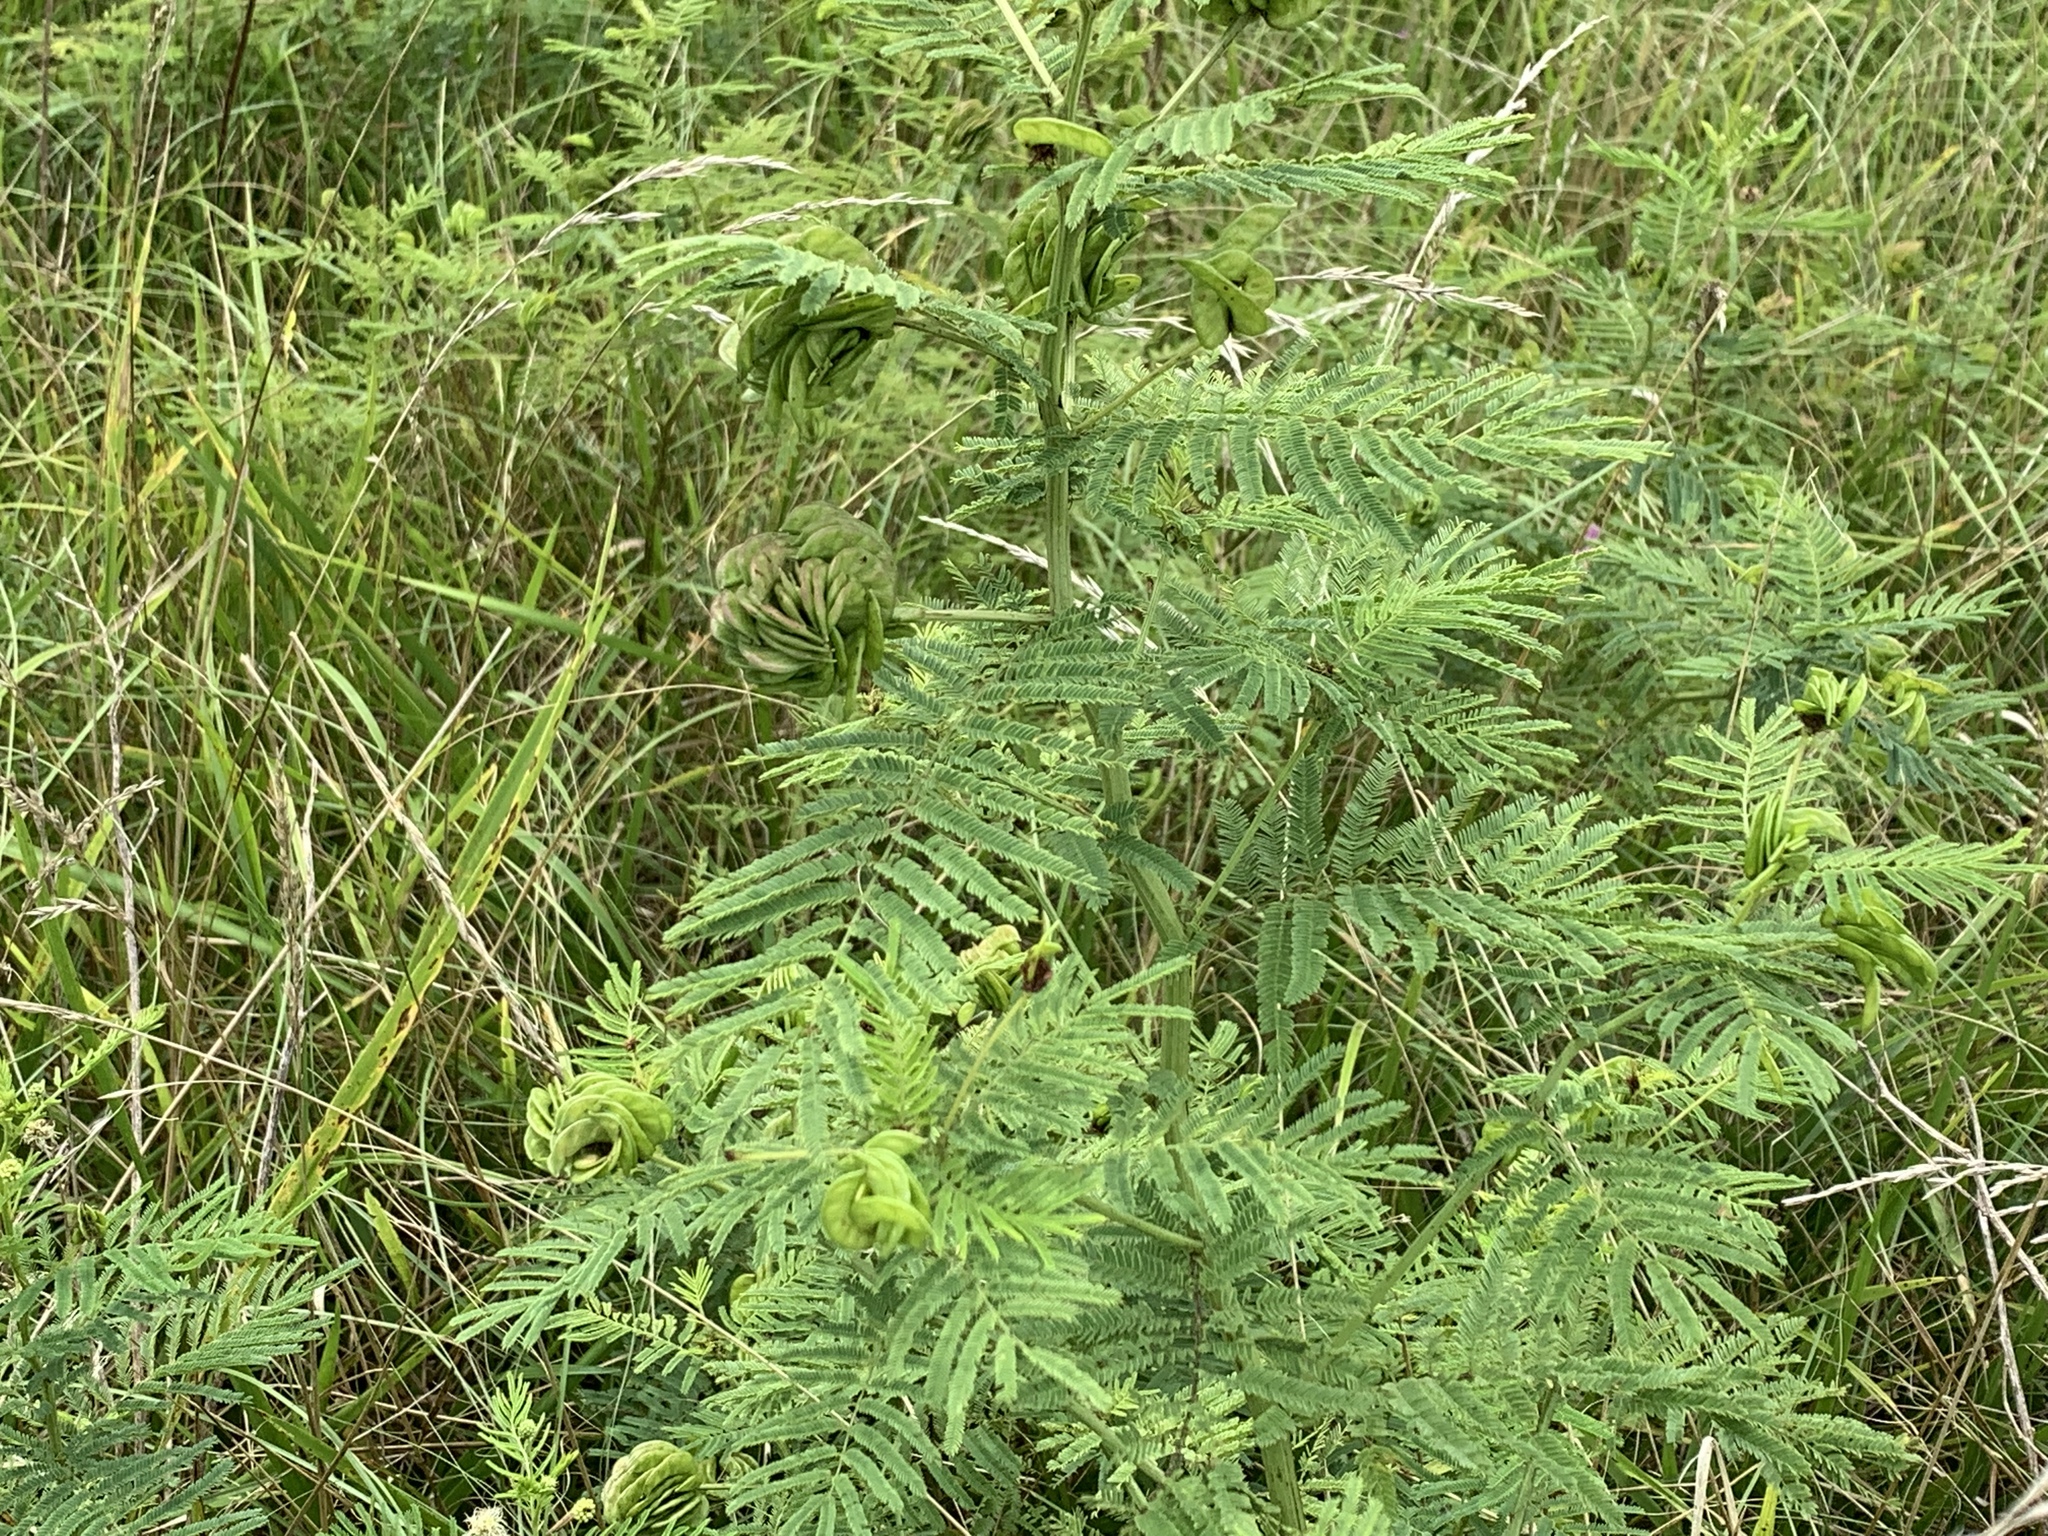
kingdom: Plantae
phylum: Tracheophyta
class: Magnoliopsida
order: Fabales
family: Fabaceae
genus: Desmanthus
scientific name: Desmanthus illinoensis
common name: Illinois bundle-flower
